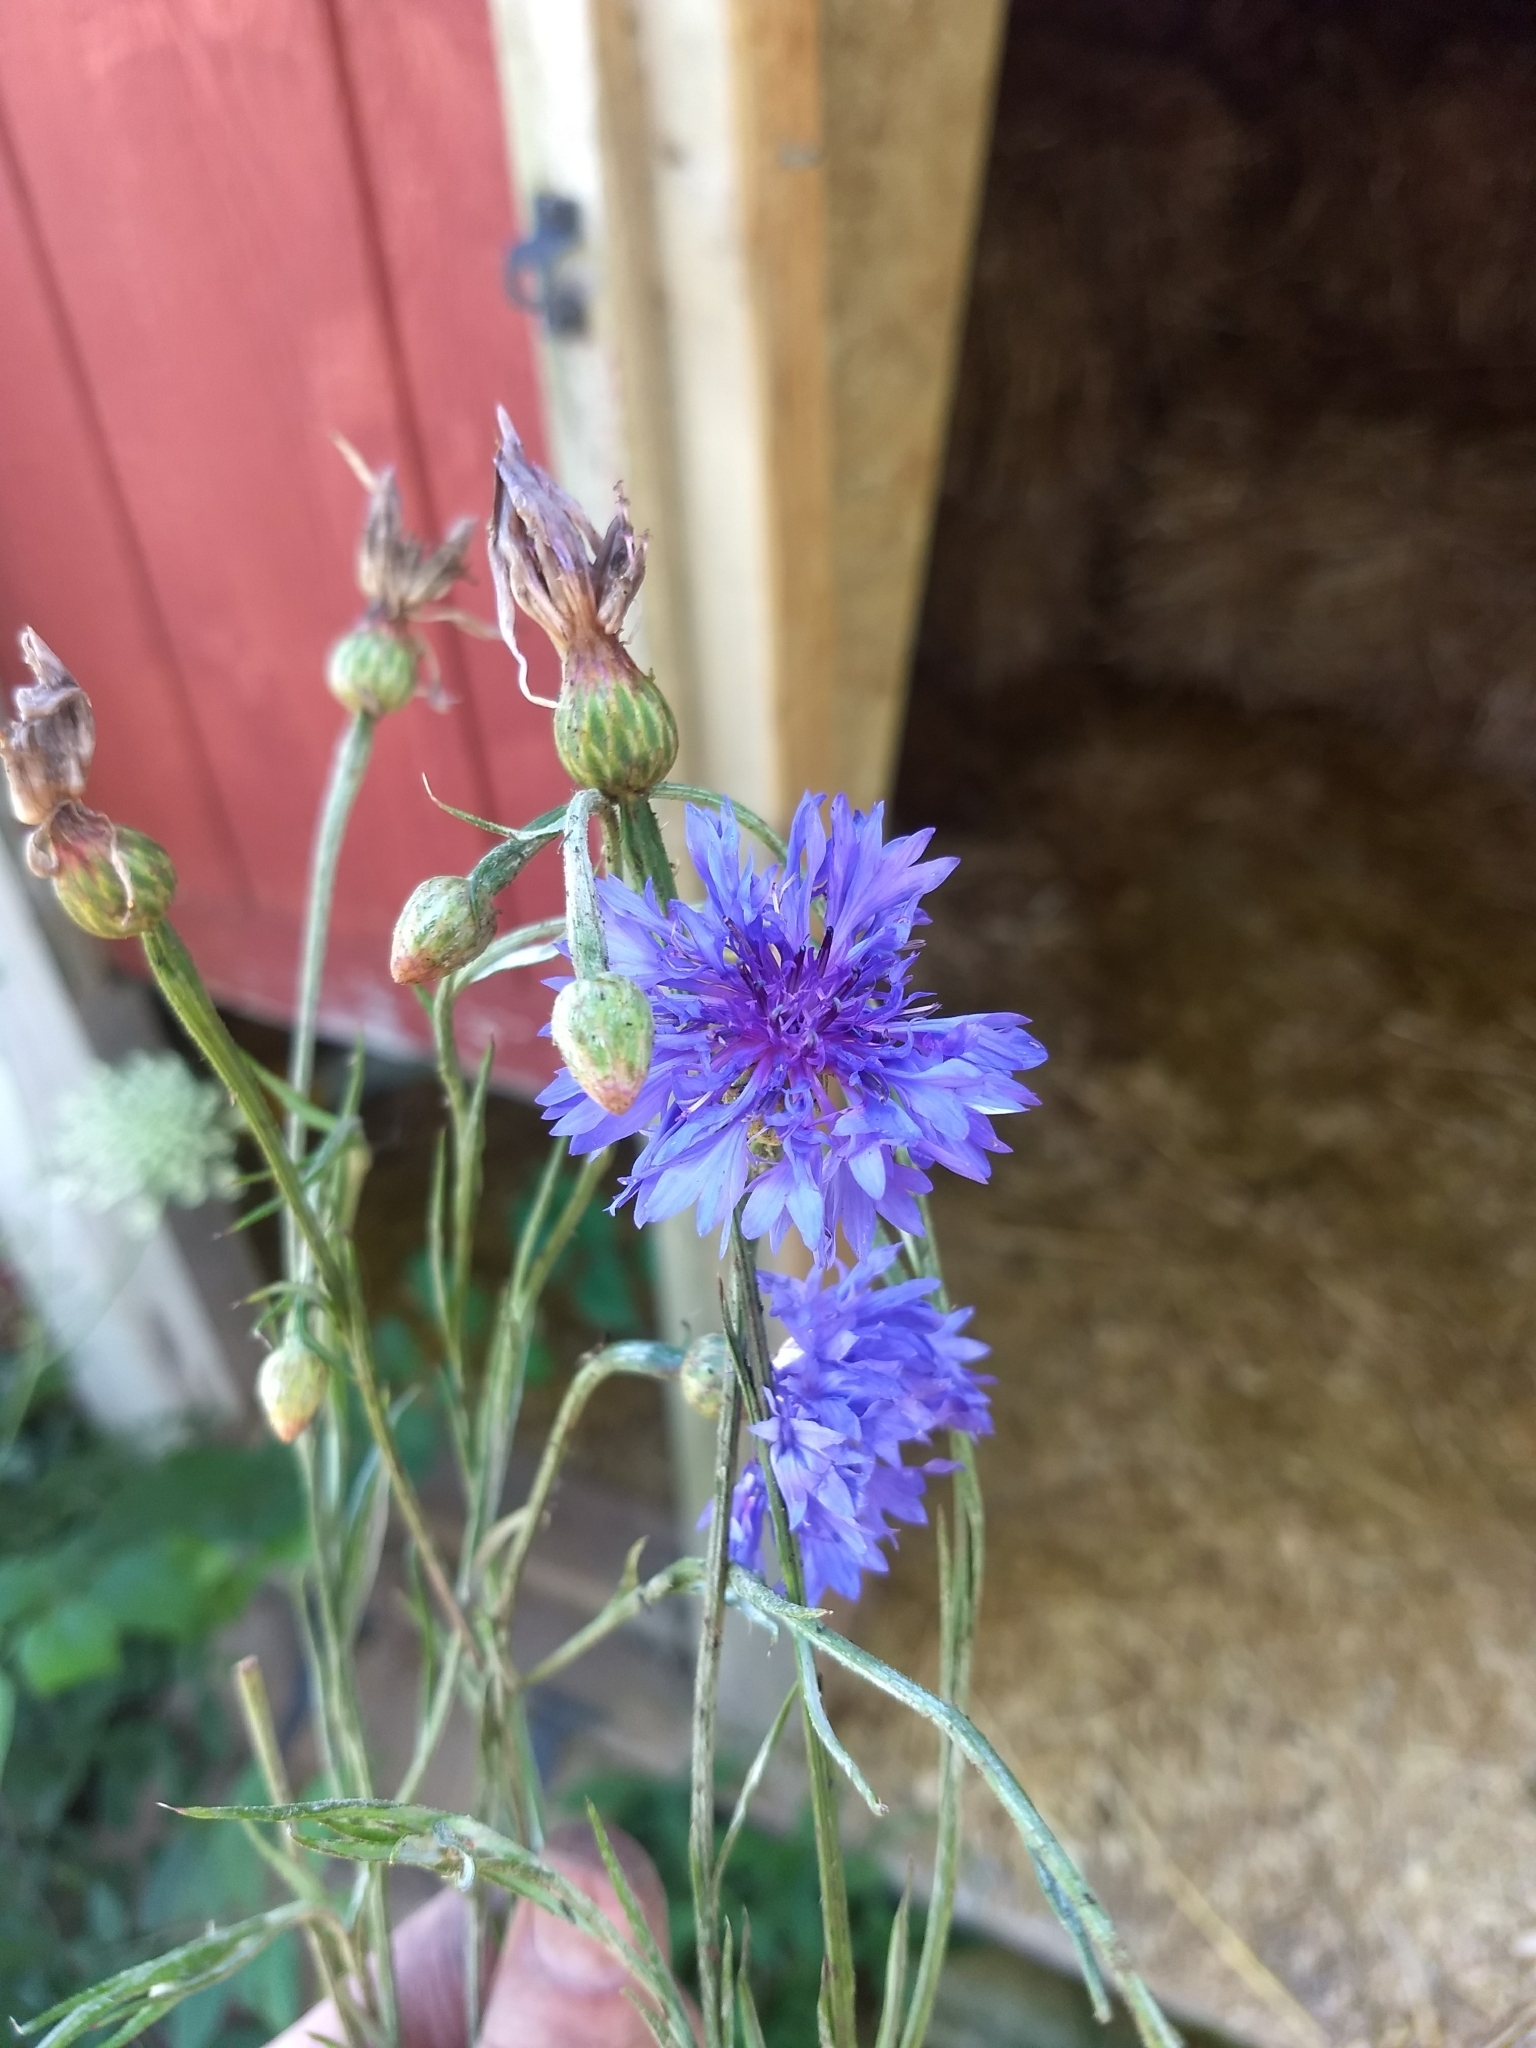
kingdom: Plantae
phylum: Tracheophyta
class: Magnoliopsida
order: Asterales
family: Asteraceae
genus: Centaurea
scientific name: Centaurea cyanus
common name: Cornflower
